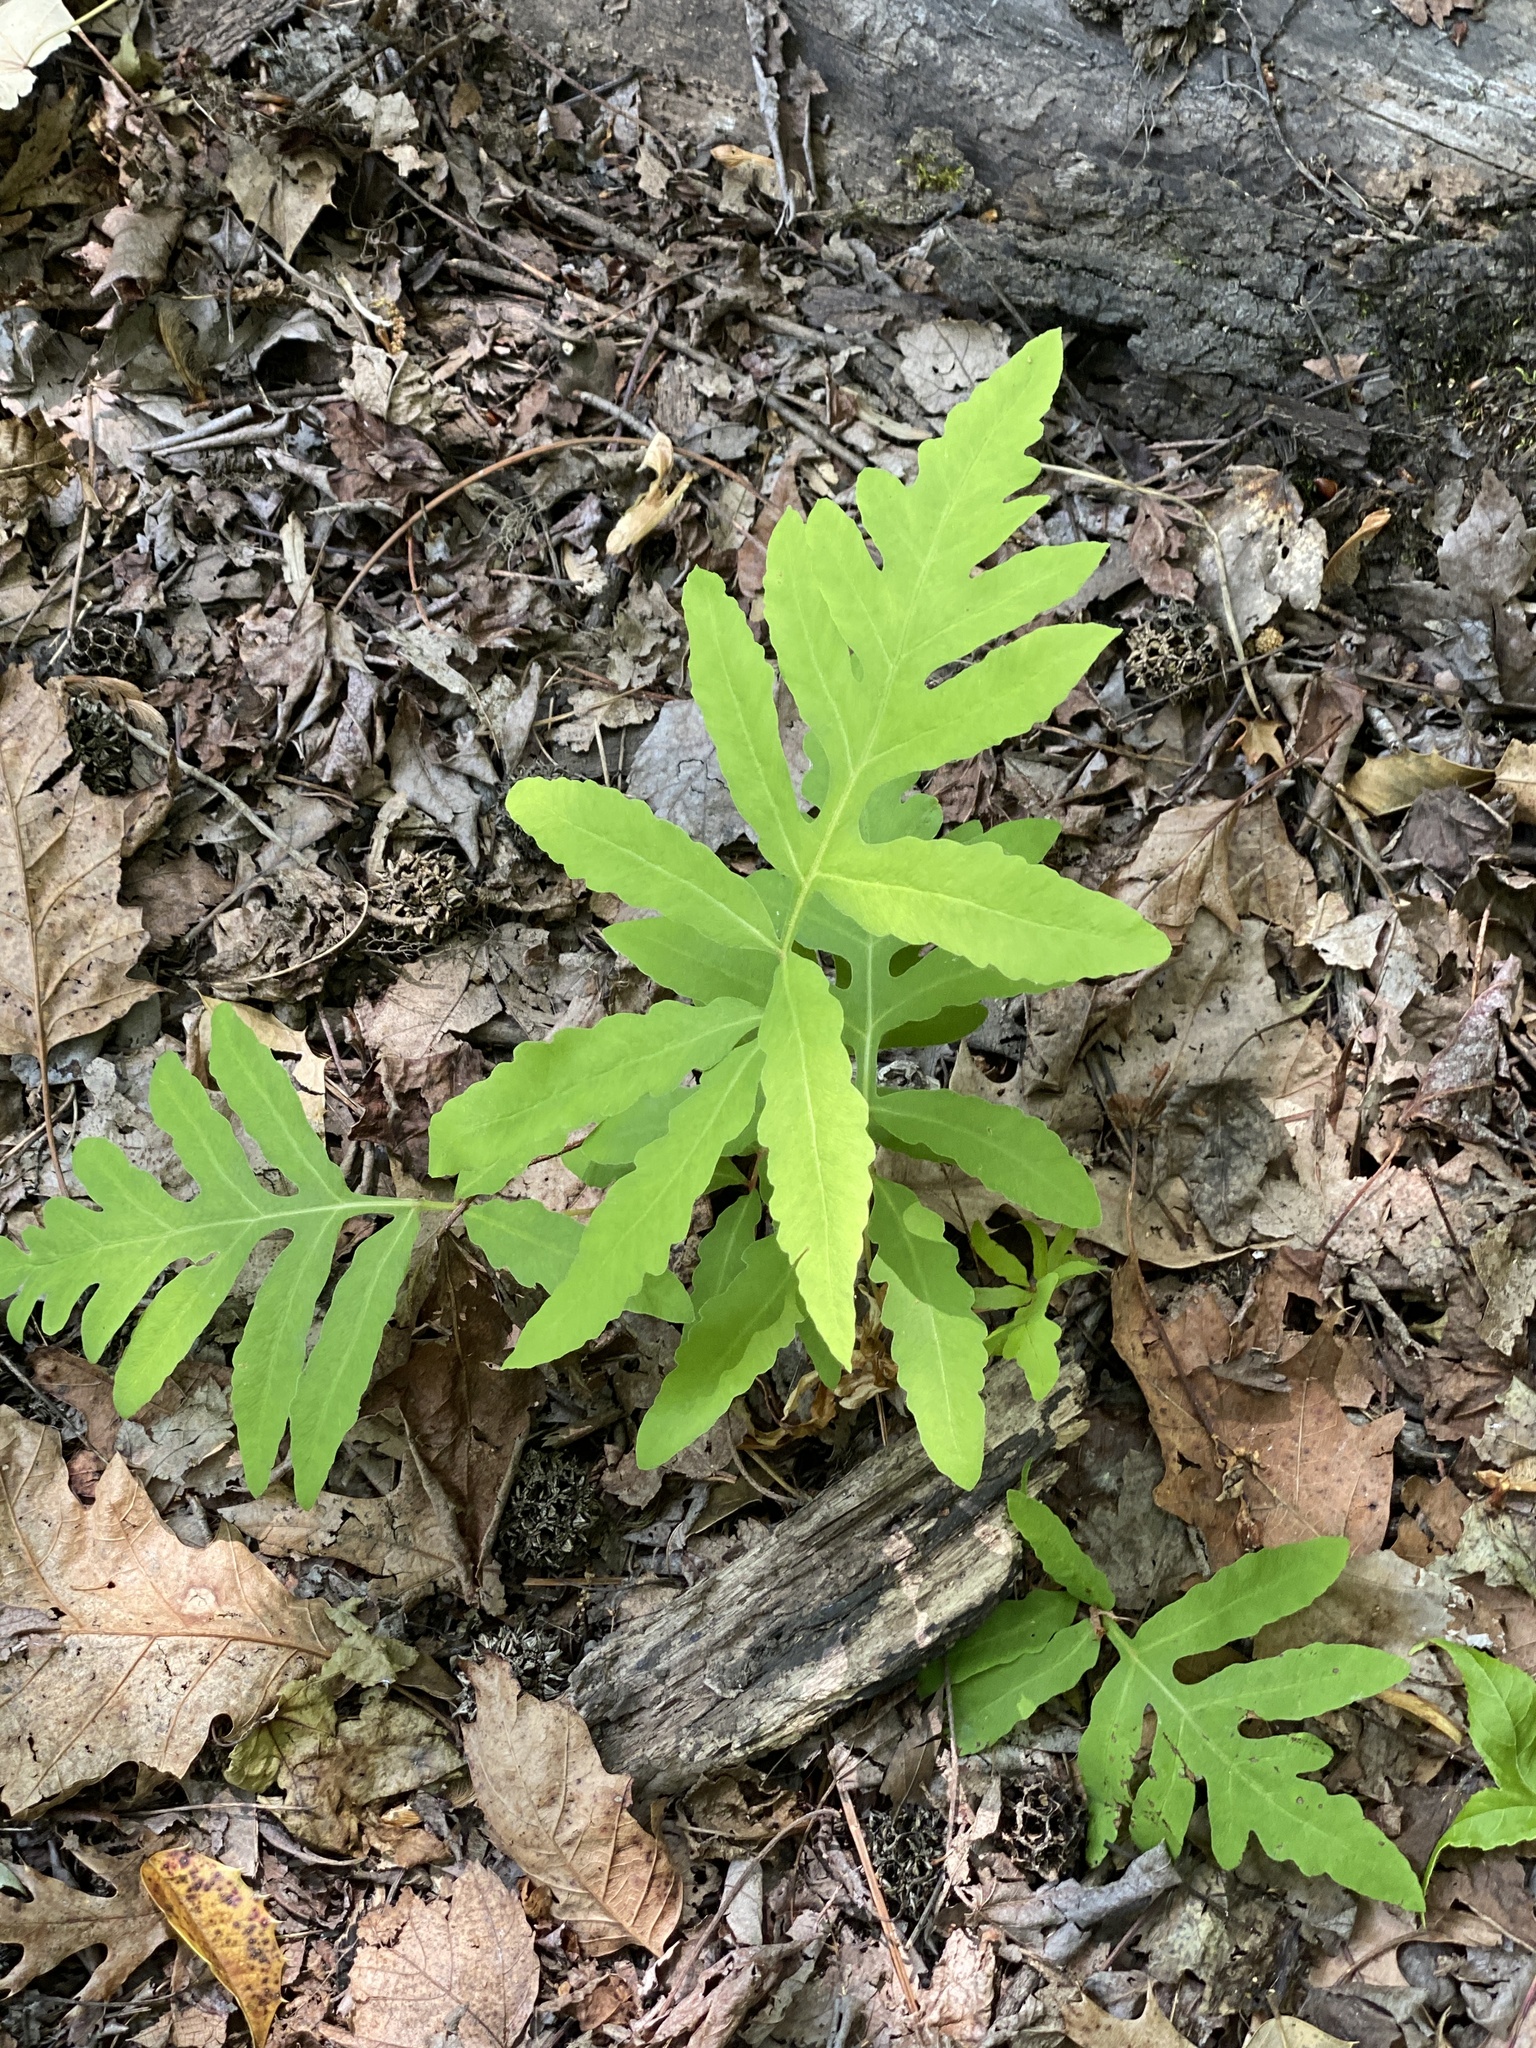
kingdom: Plantae
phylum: Tracheophyta
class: Polypodiopsida
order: Polypodiales
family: Onocleaceae
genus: Onoclea
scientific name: Onoclea sensibilis
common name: Sensitive fern
